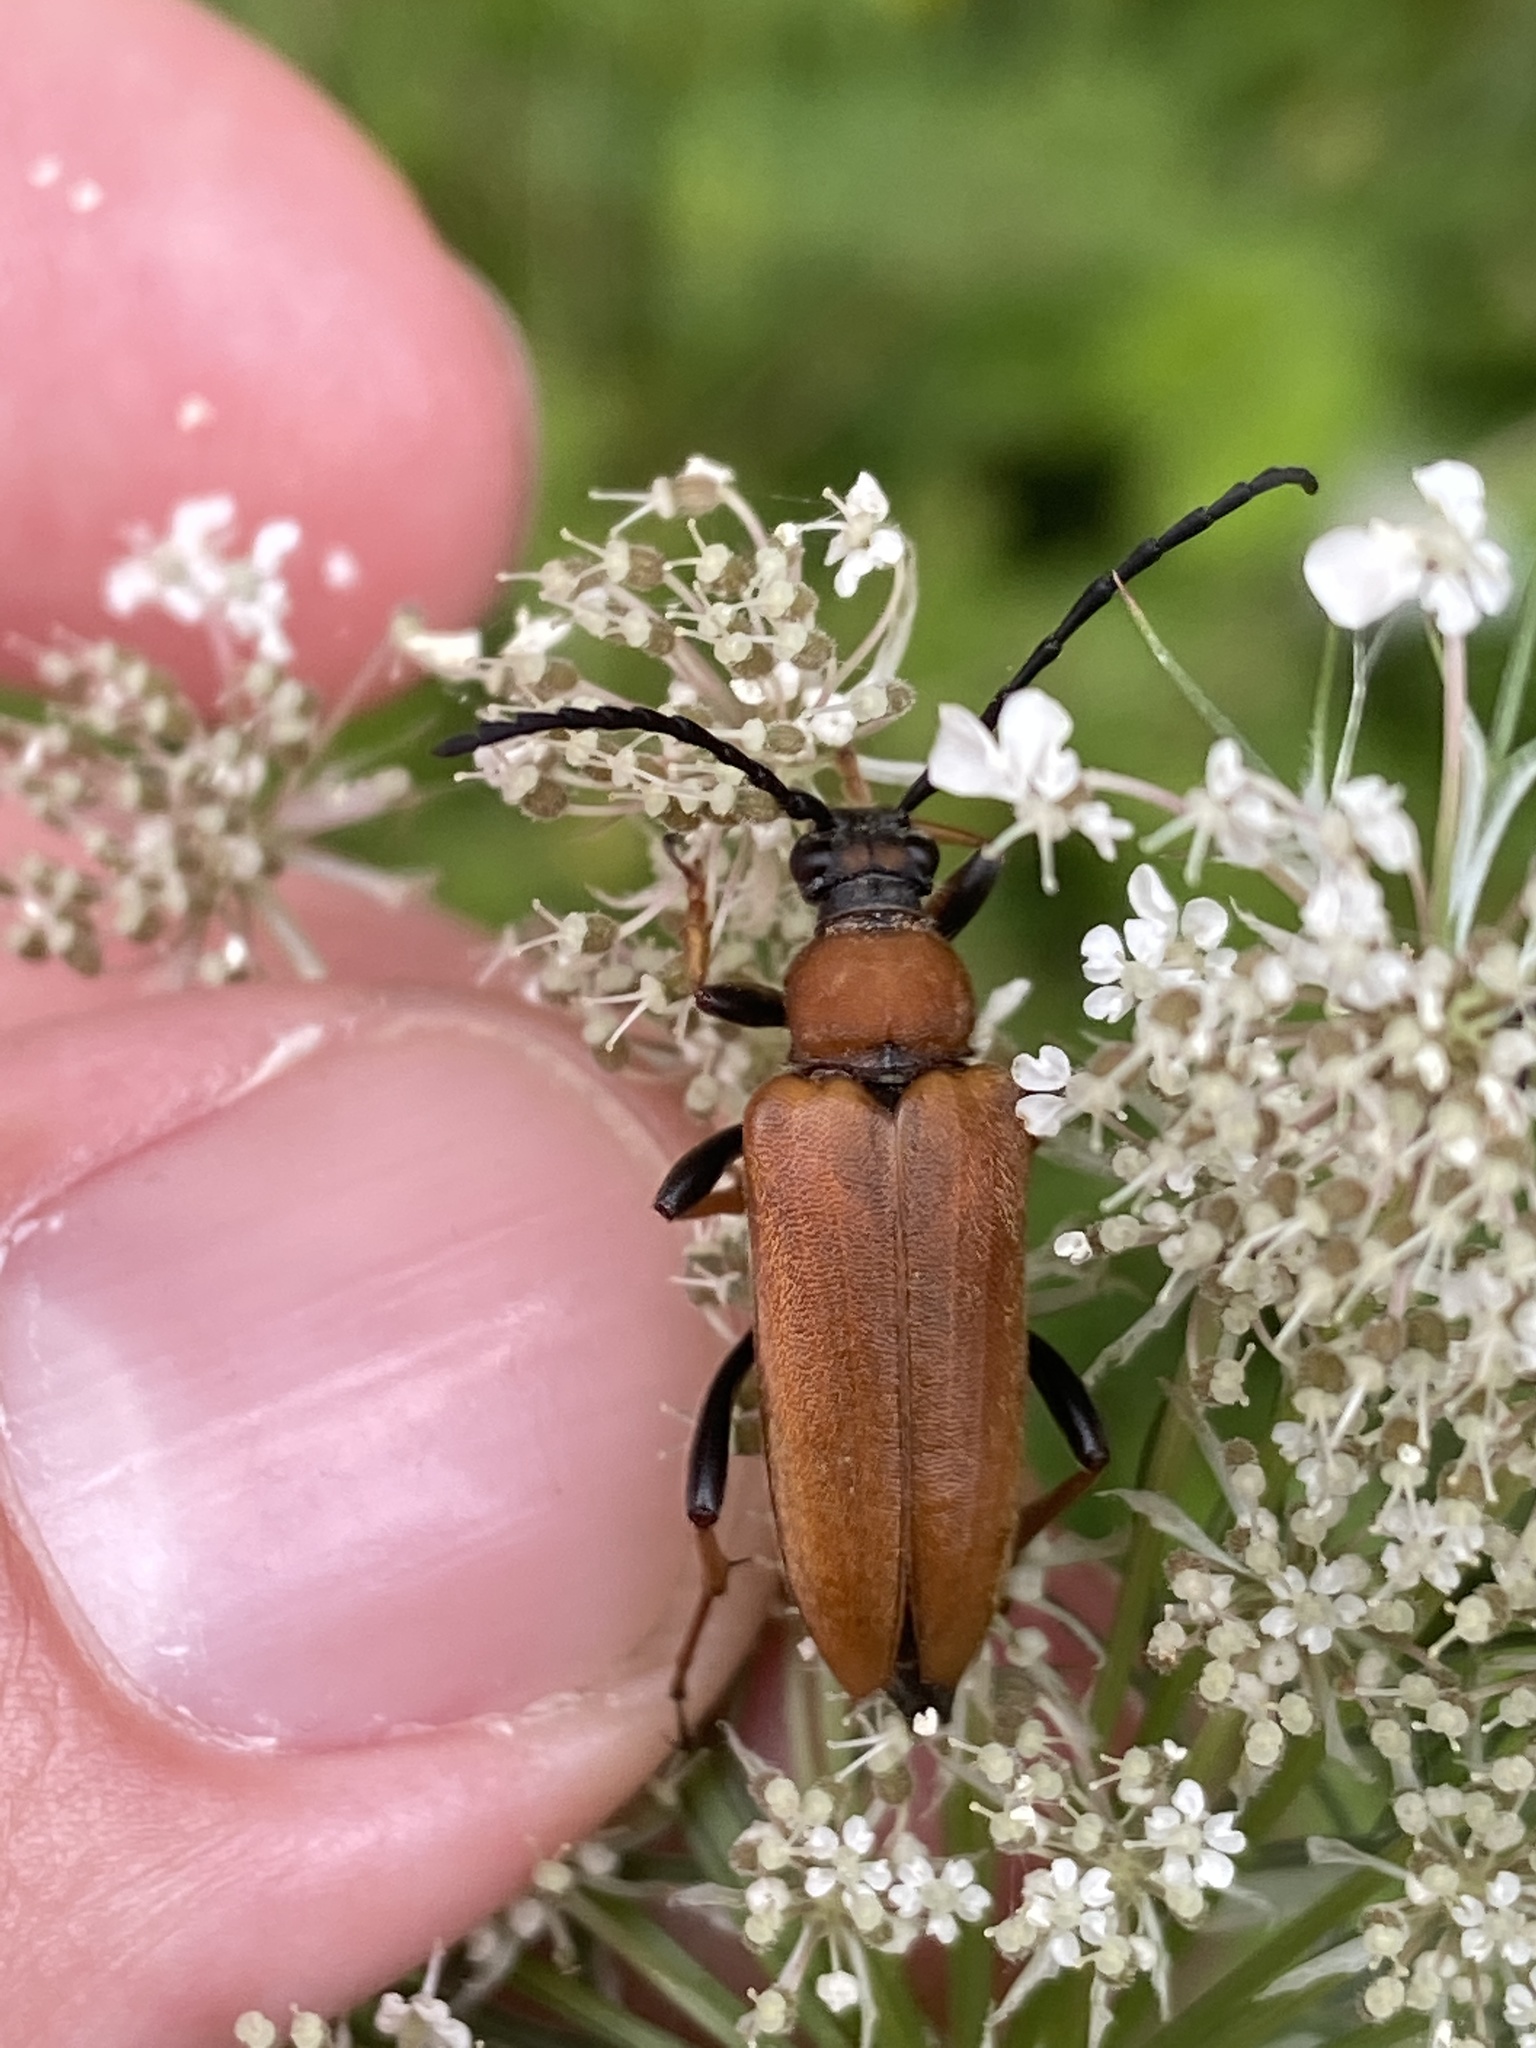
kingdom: Animalia
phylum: Arthropoda
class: Insecta
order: Coleoptera
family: Cerambycidae
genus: Stictoleptura
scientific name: Stictoleptura rubra
